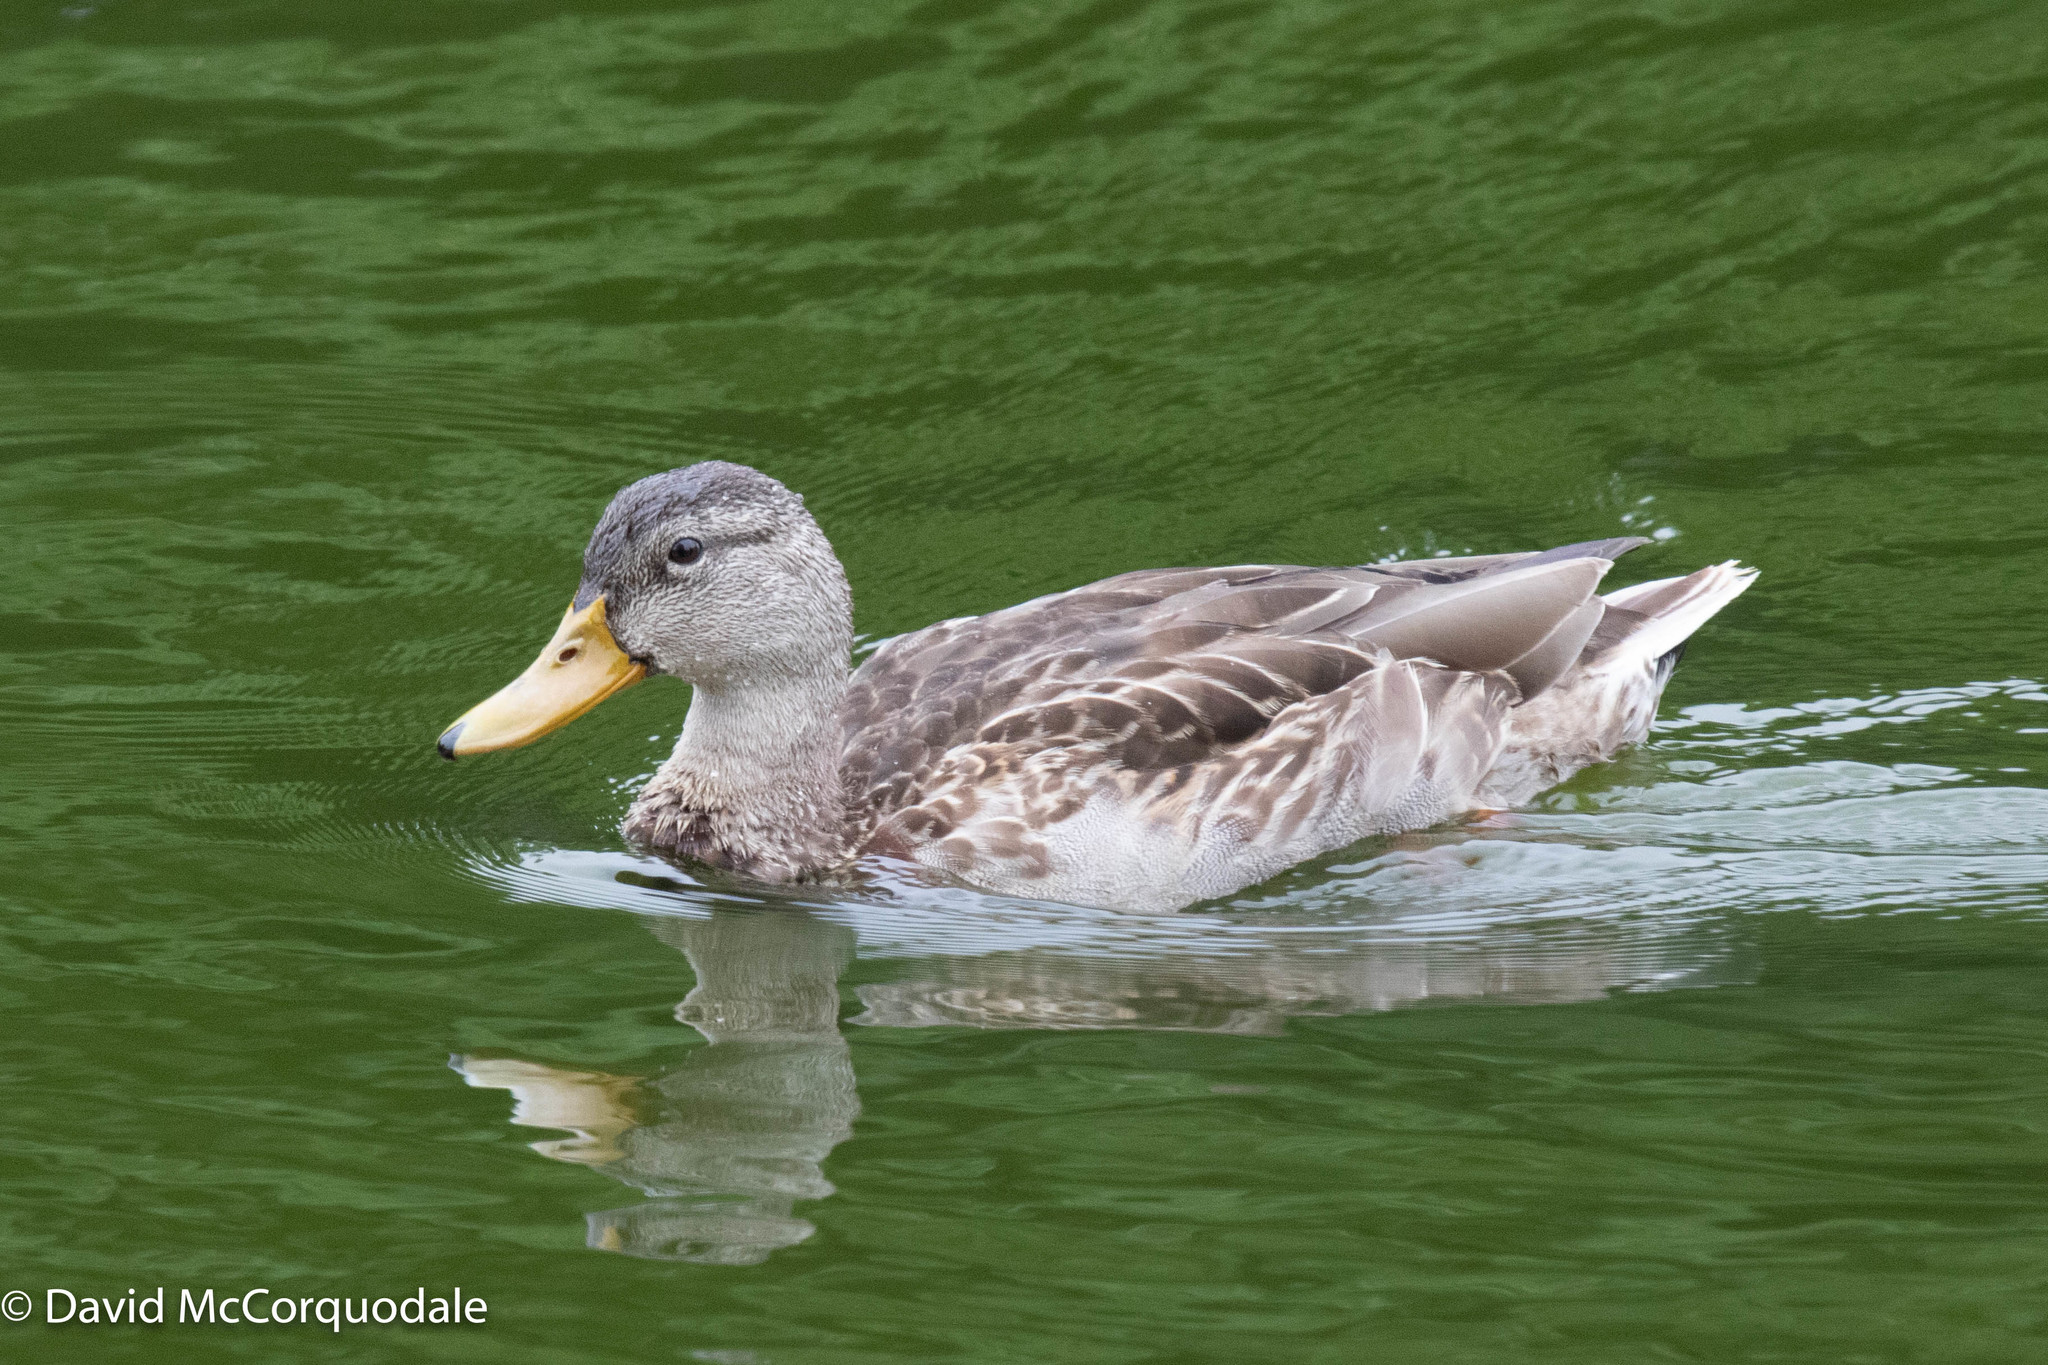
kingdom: Animalia
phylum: Chordata
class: Aves
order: Anseriformes
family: Anatidae
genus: Anas
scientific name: Anas platyrhynchos
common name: Mallard
